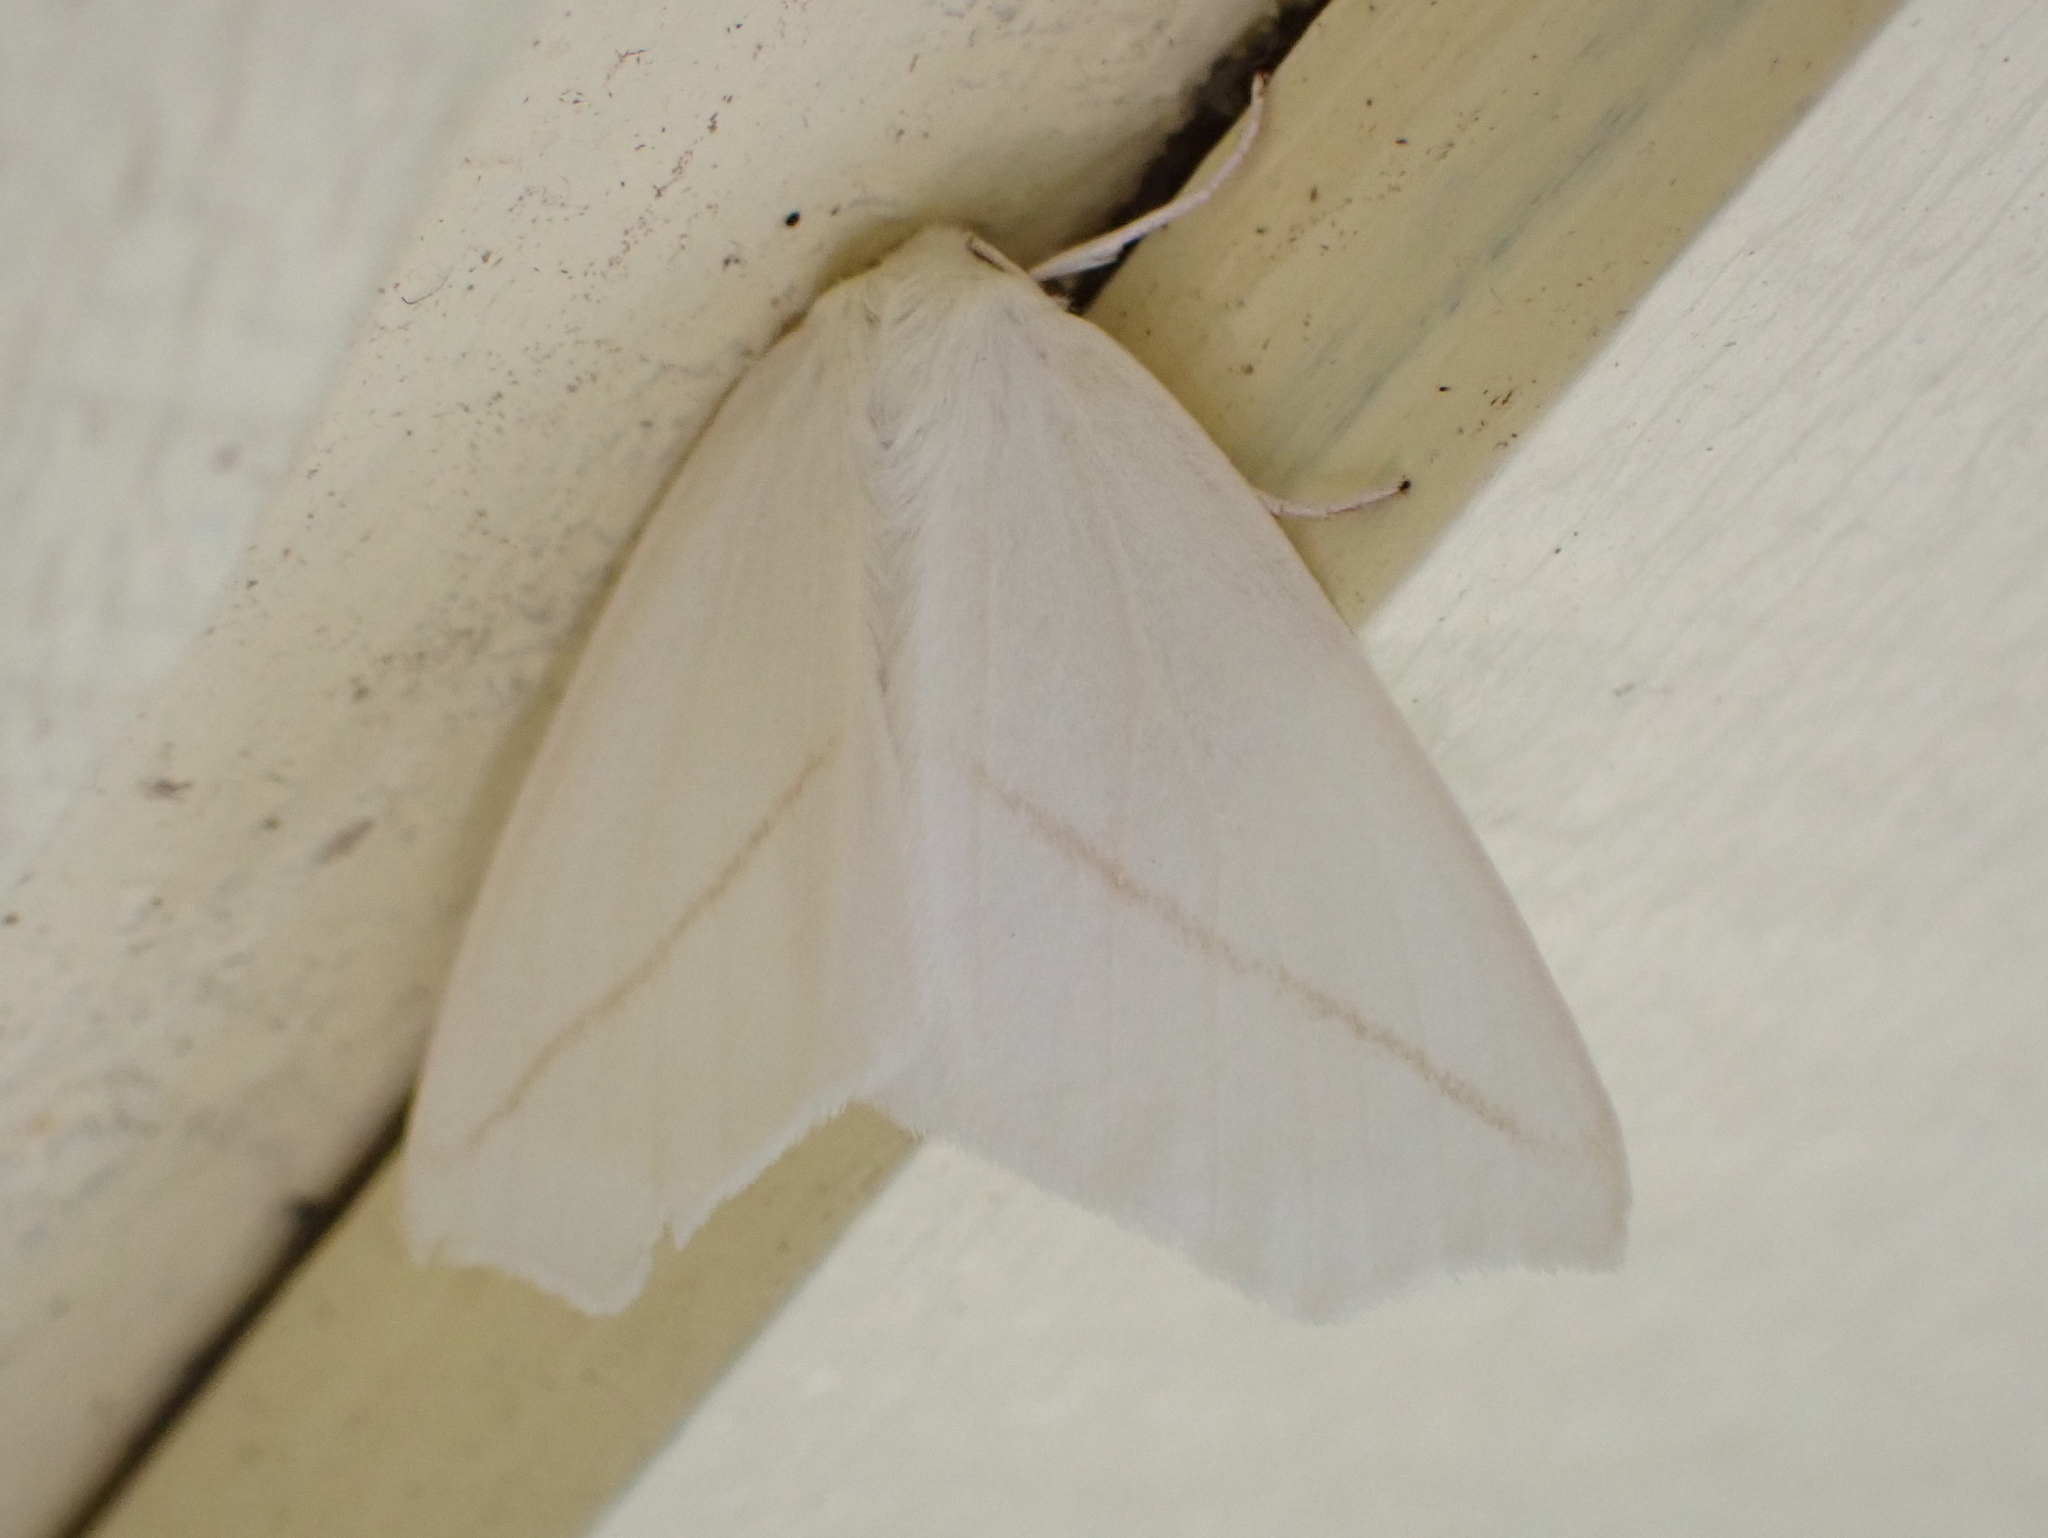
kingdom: Animalia
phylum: Arthropoda
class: Insecta
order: Lepidoptera
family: Geometridae
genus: Tetracis
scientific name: Tetracis cachexiata
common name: White slant-line
